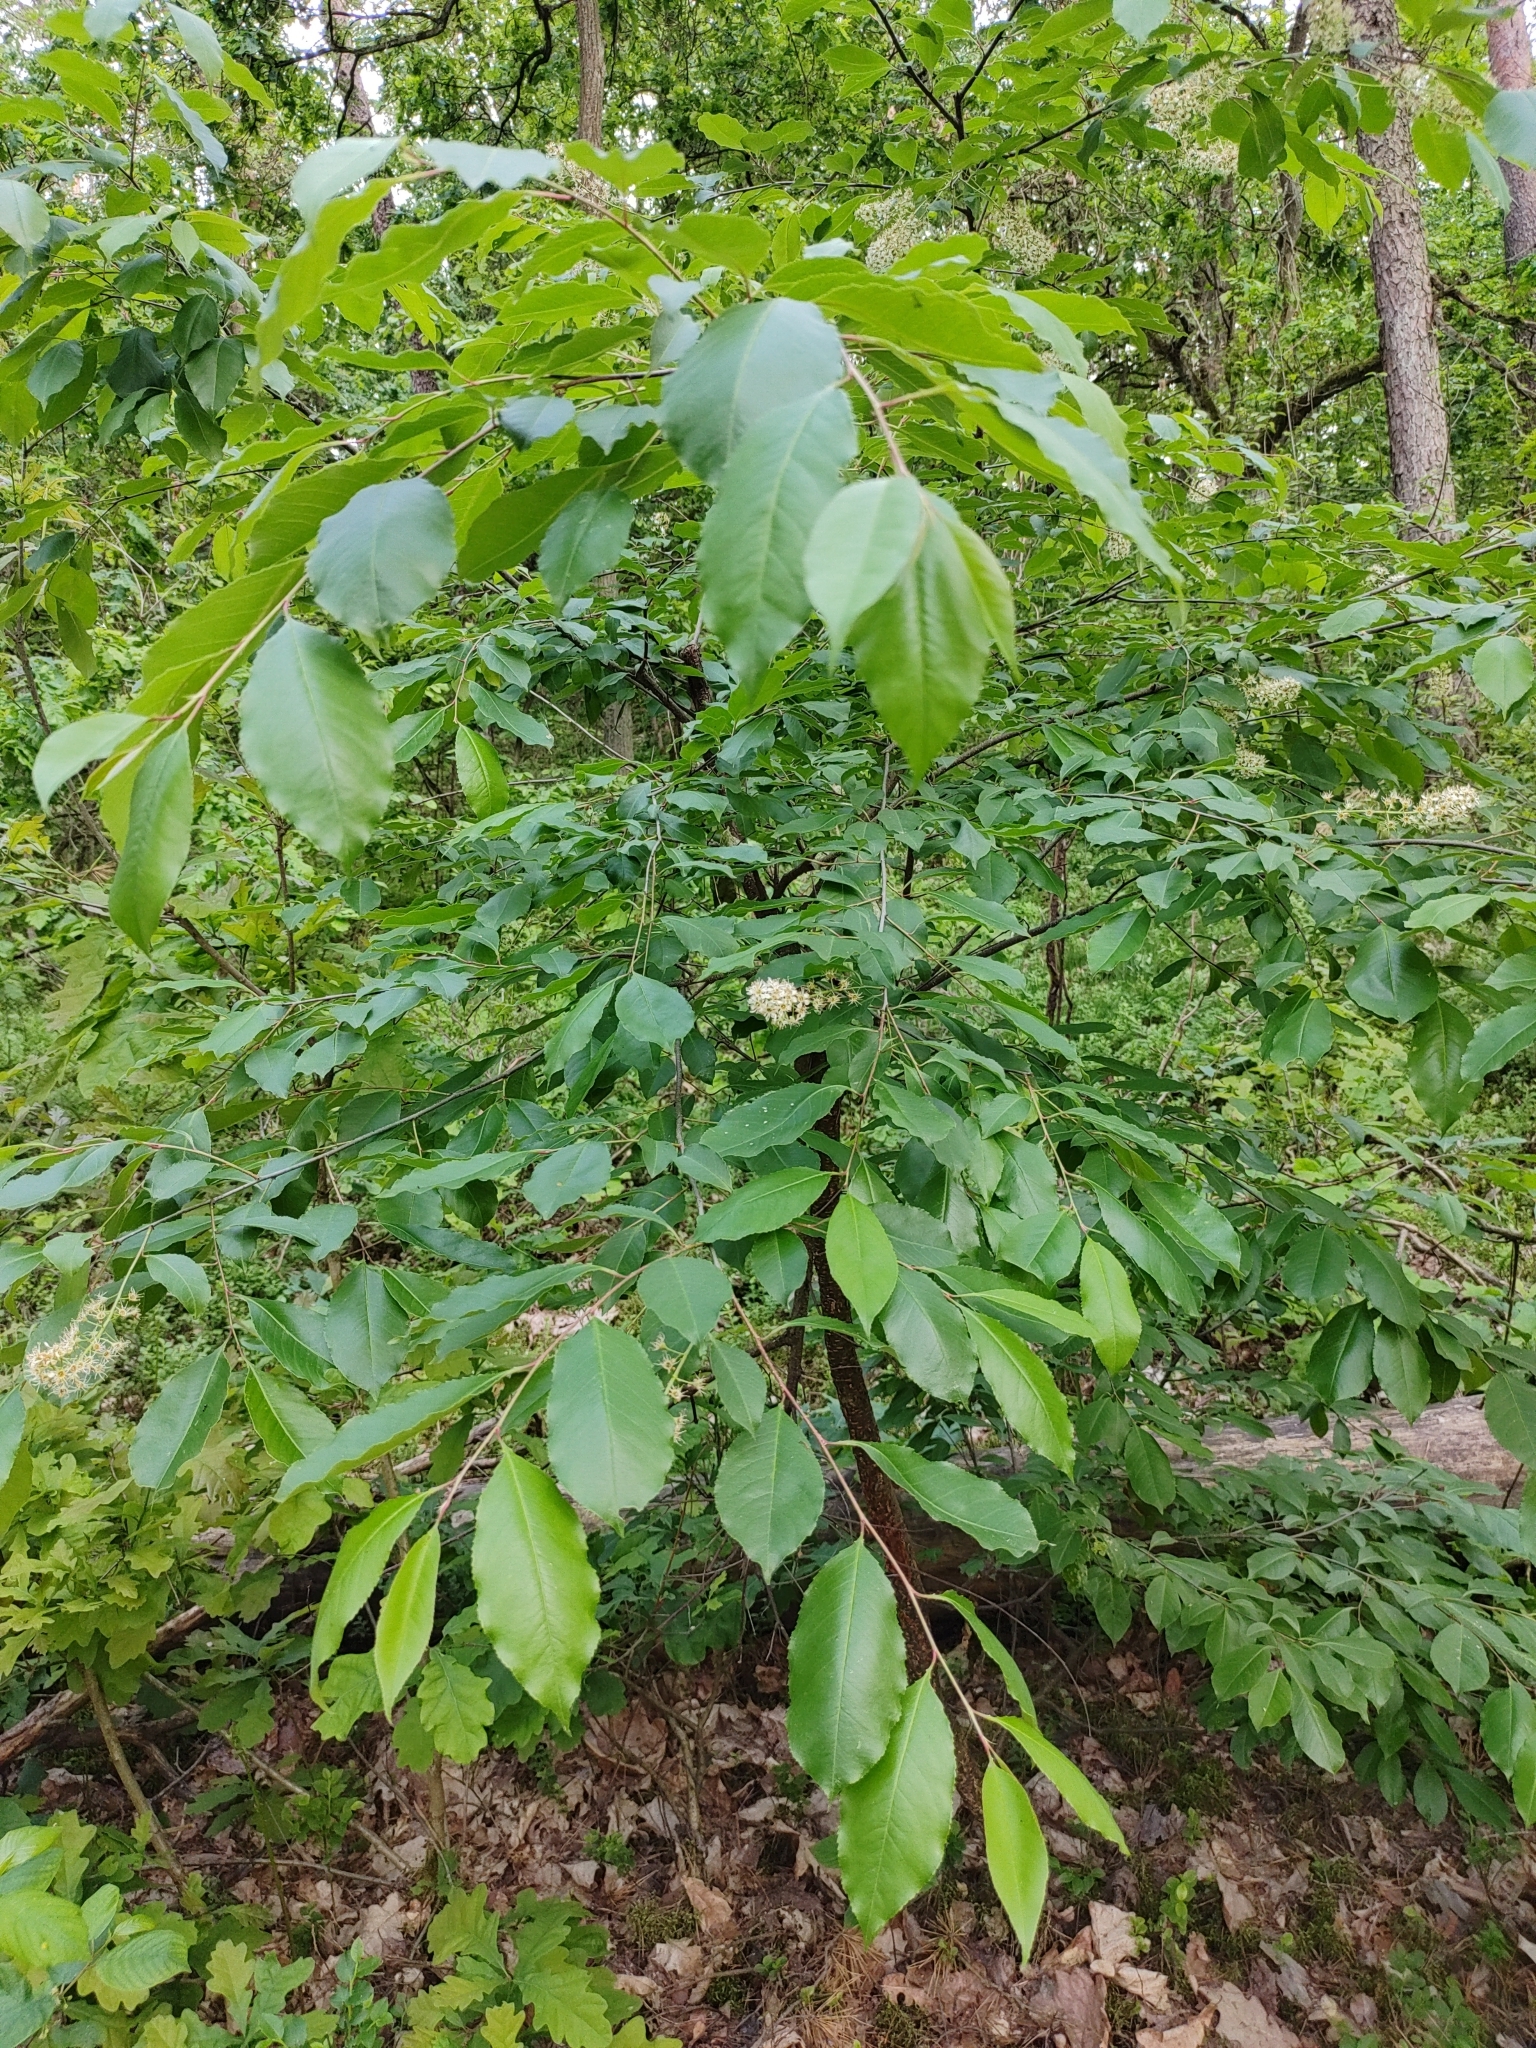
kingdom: Plantae
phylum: Tracheophyta
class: Magnoliopsida
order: Rosales
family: Rosaceae
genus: Prunus
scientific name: Prunus serotina
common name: Black cherry
